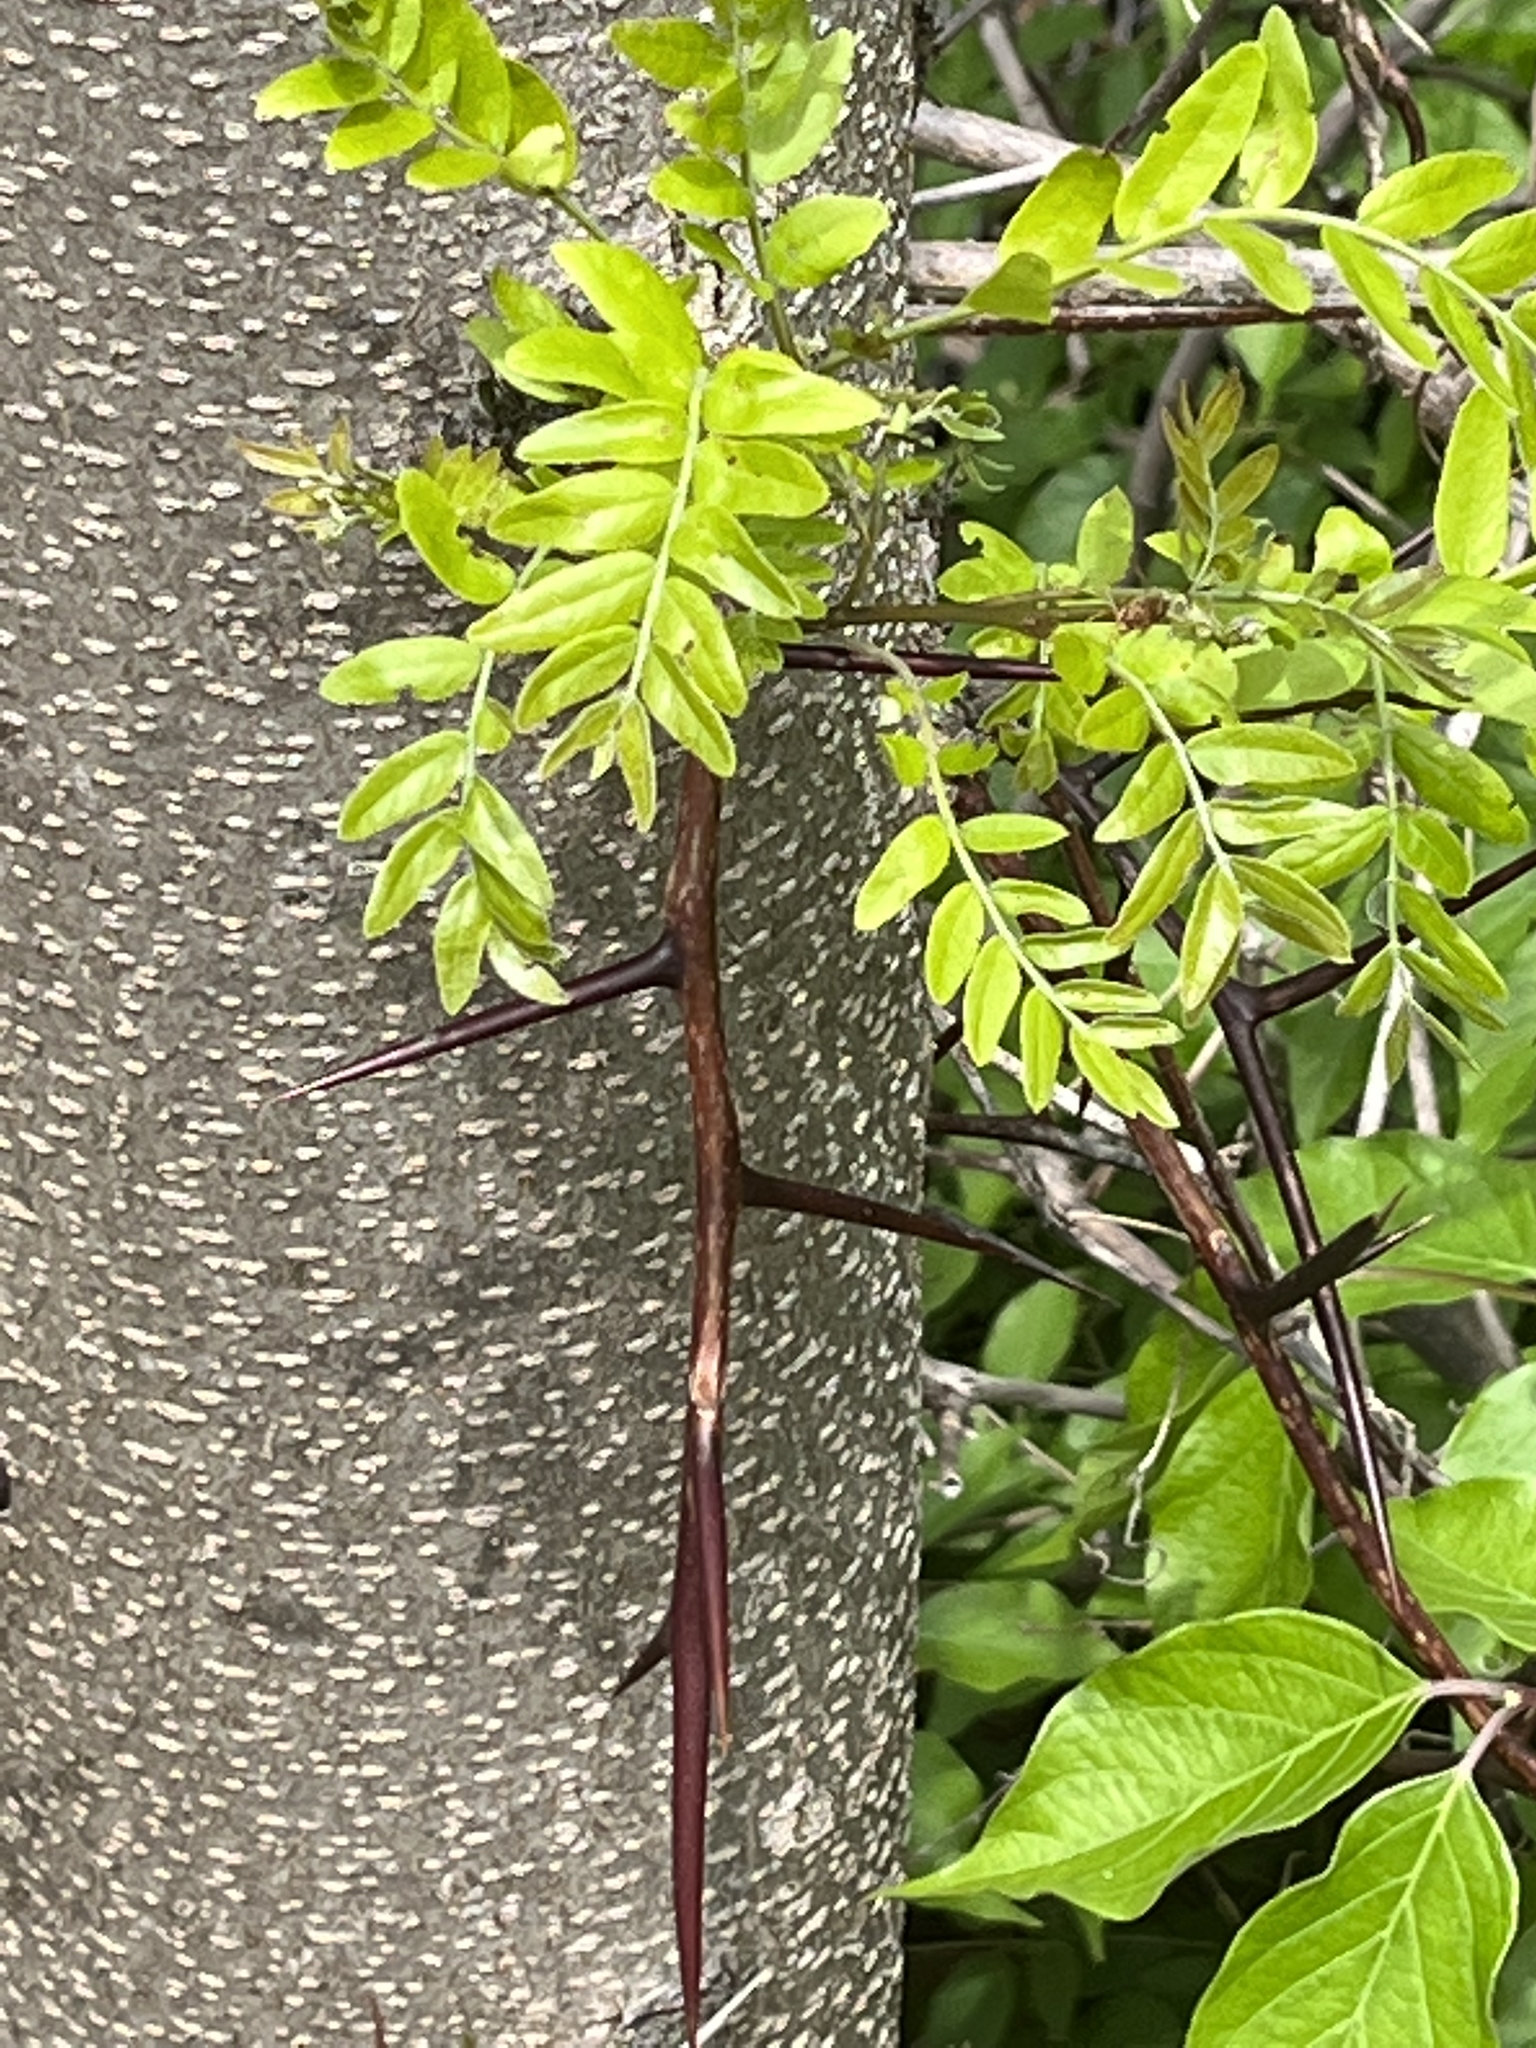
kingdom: Plantae
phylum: Tracheophyta
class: Magnoliopsida
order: Fabales
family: Fabaceae
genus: Gleditsia
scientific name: Gleditsia triacanthos
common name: Common honeylocust
